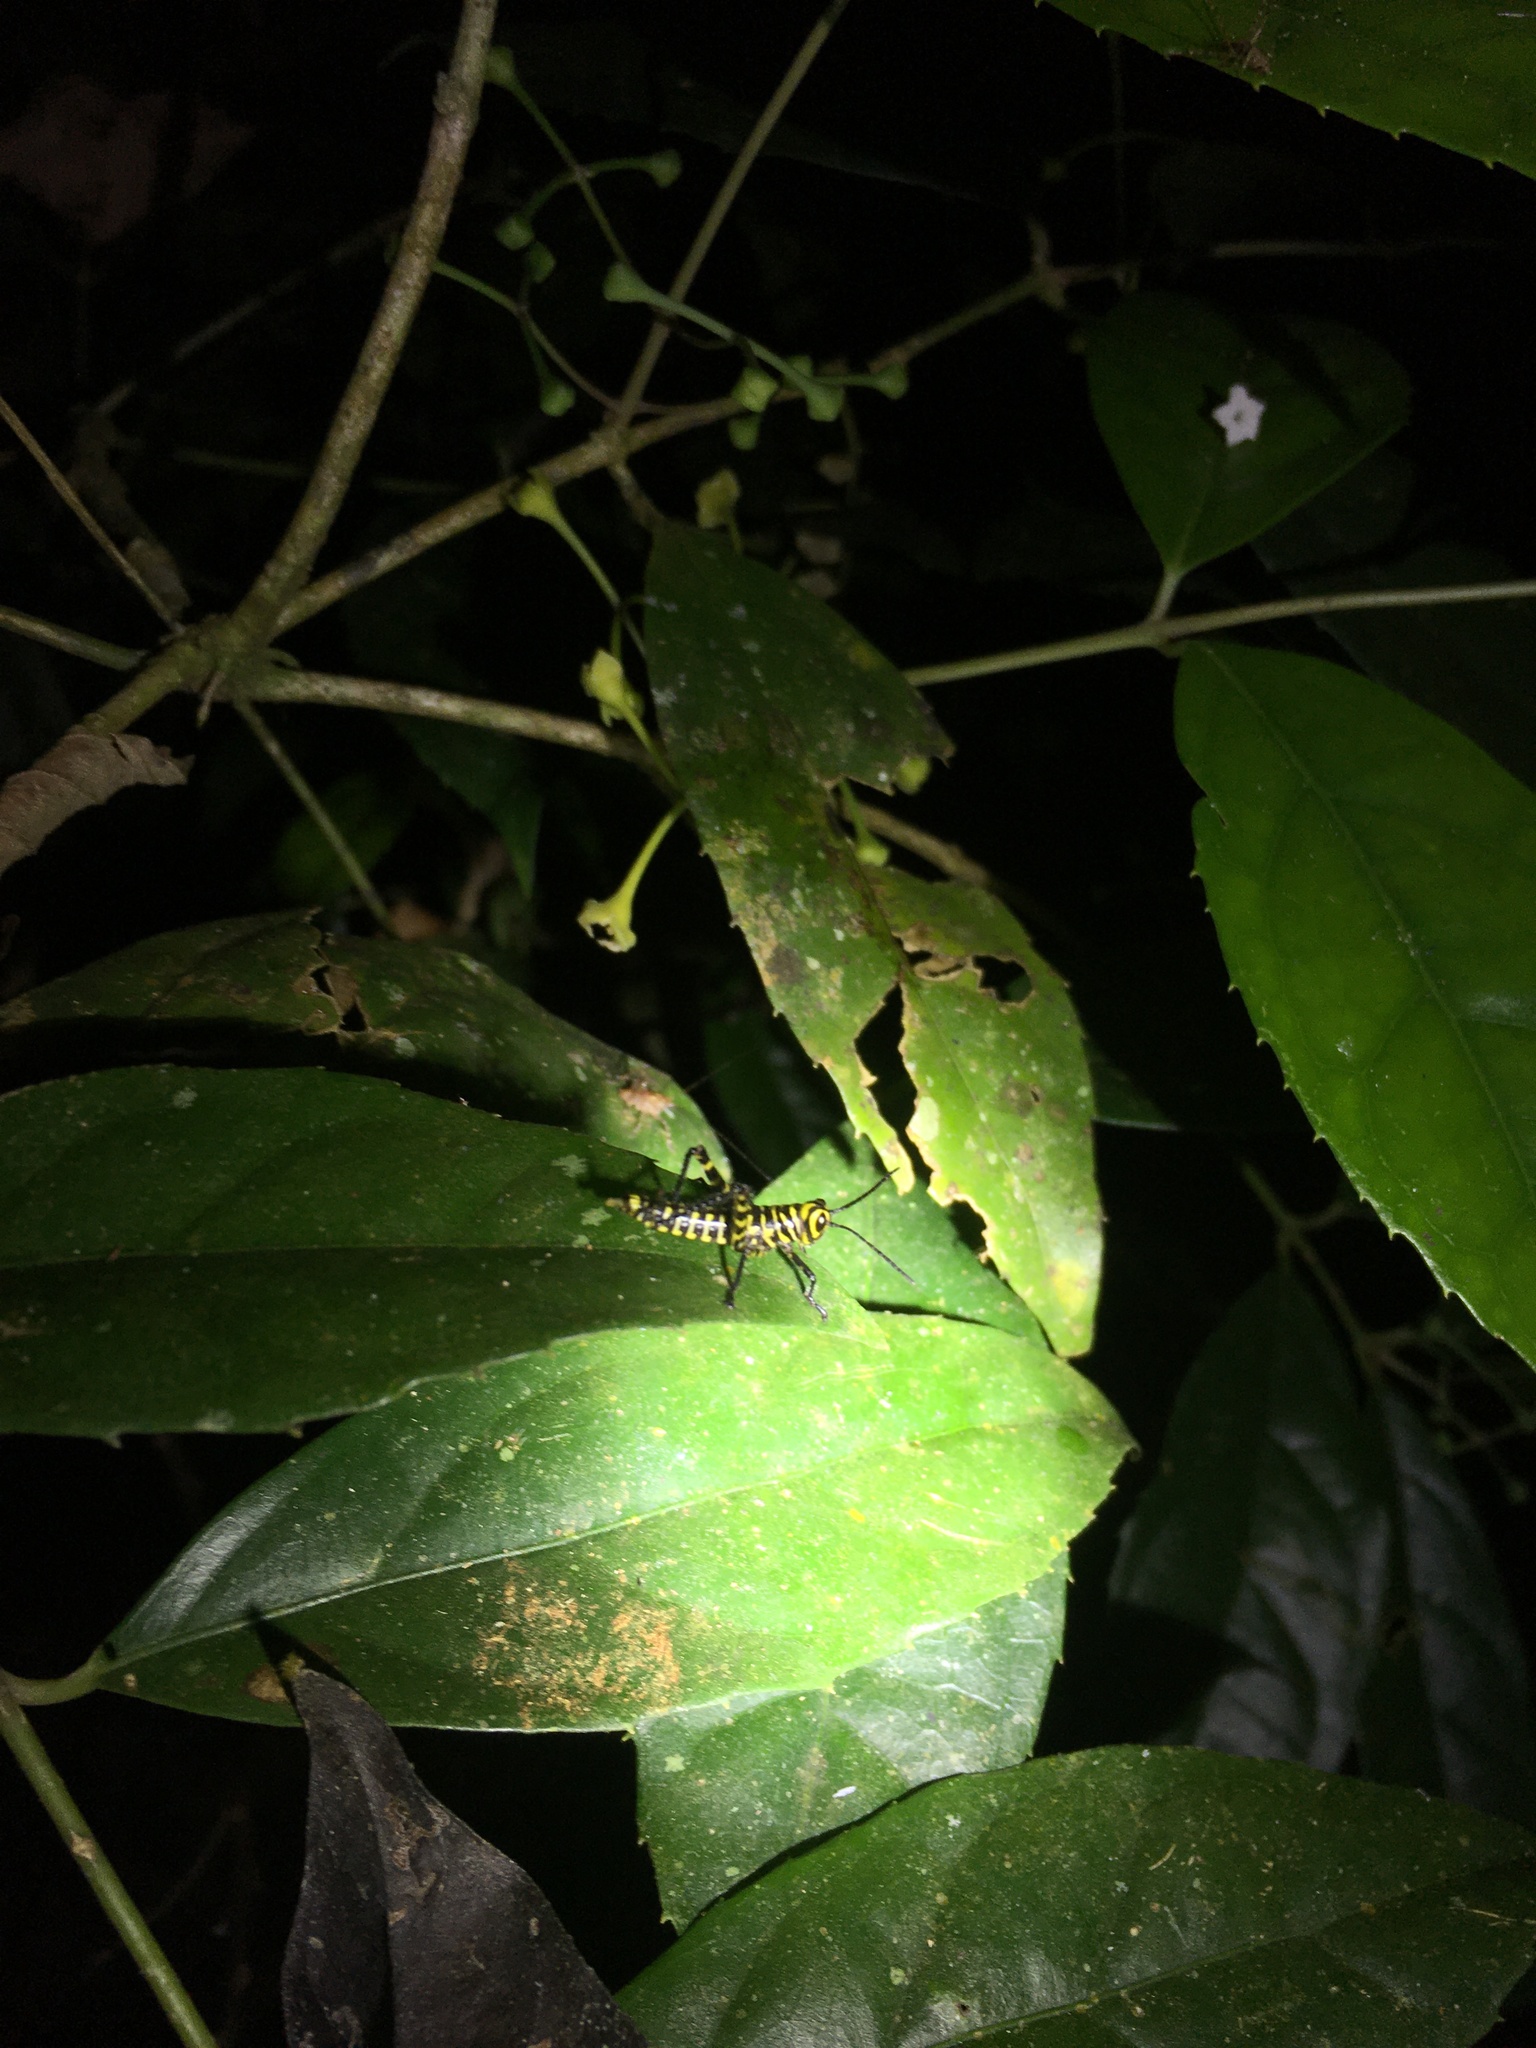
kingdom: Animalia
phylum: Arthropoda
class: Insecta
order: Orthoptera
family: Romaleidae
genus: Tropidacris
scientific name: Tropidacris cristata
